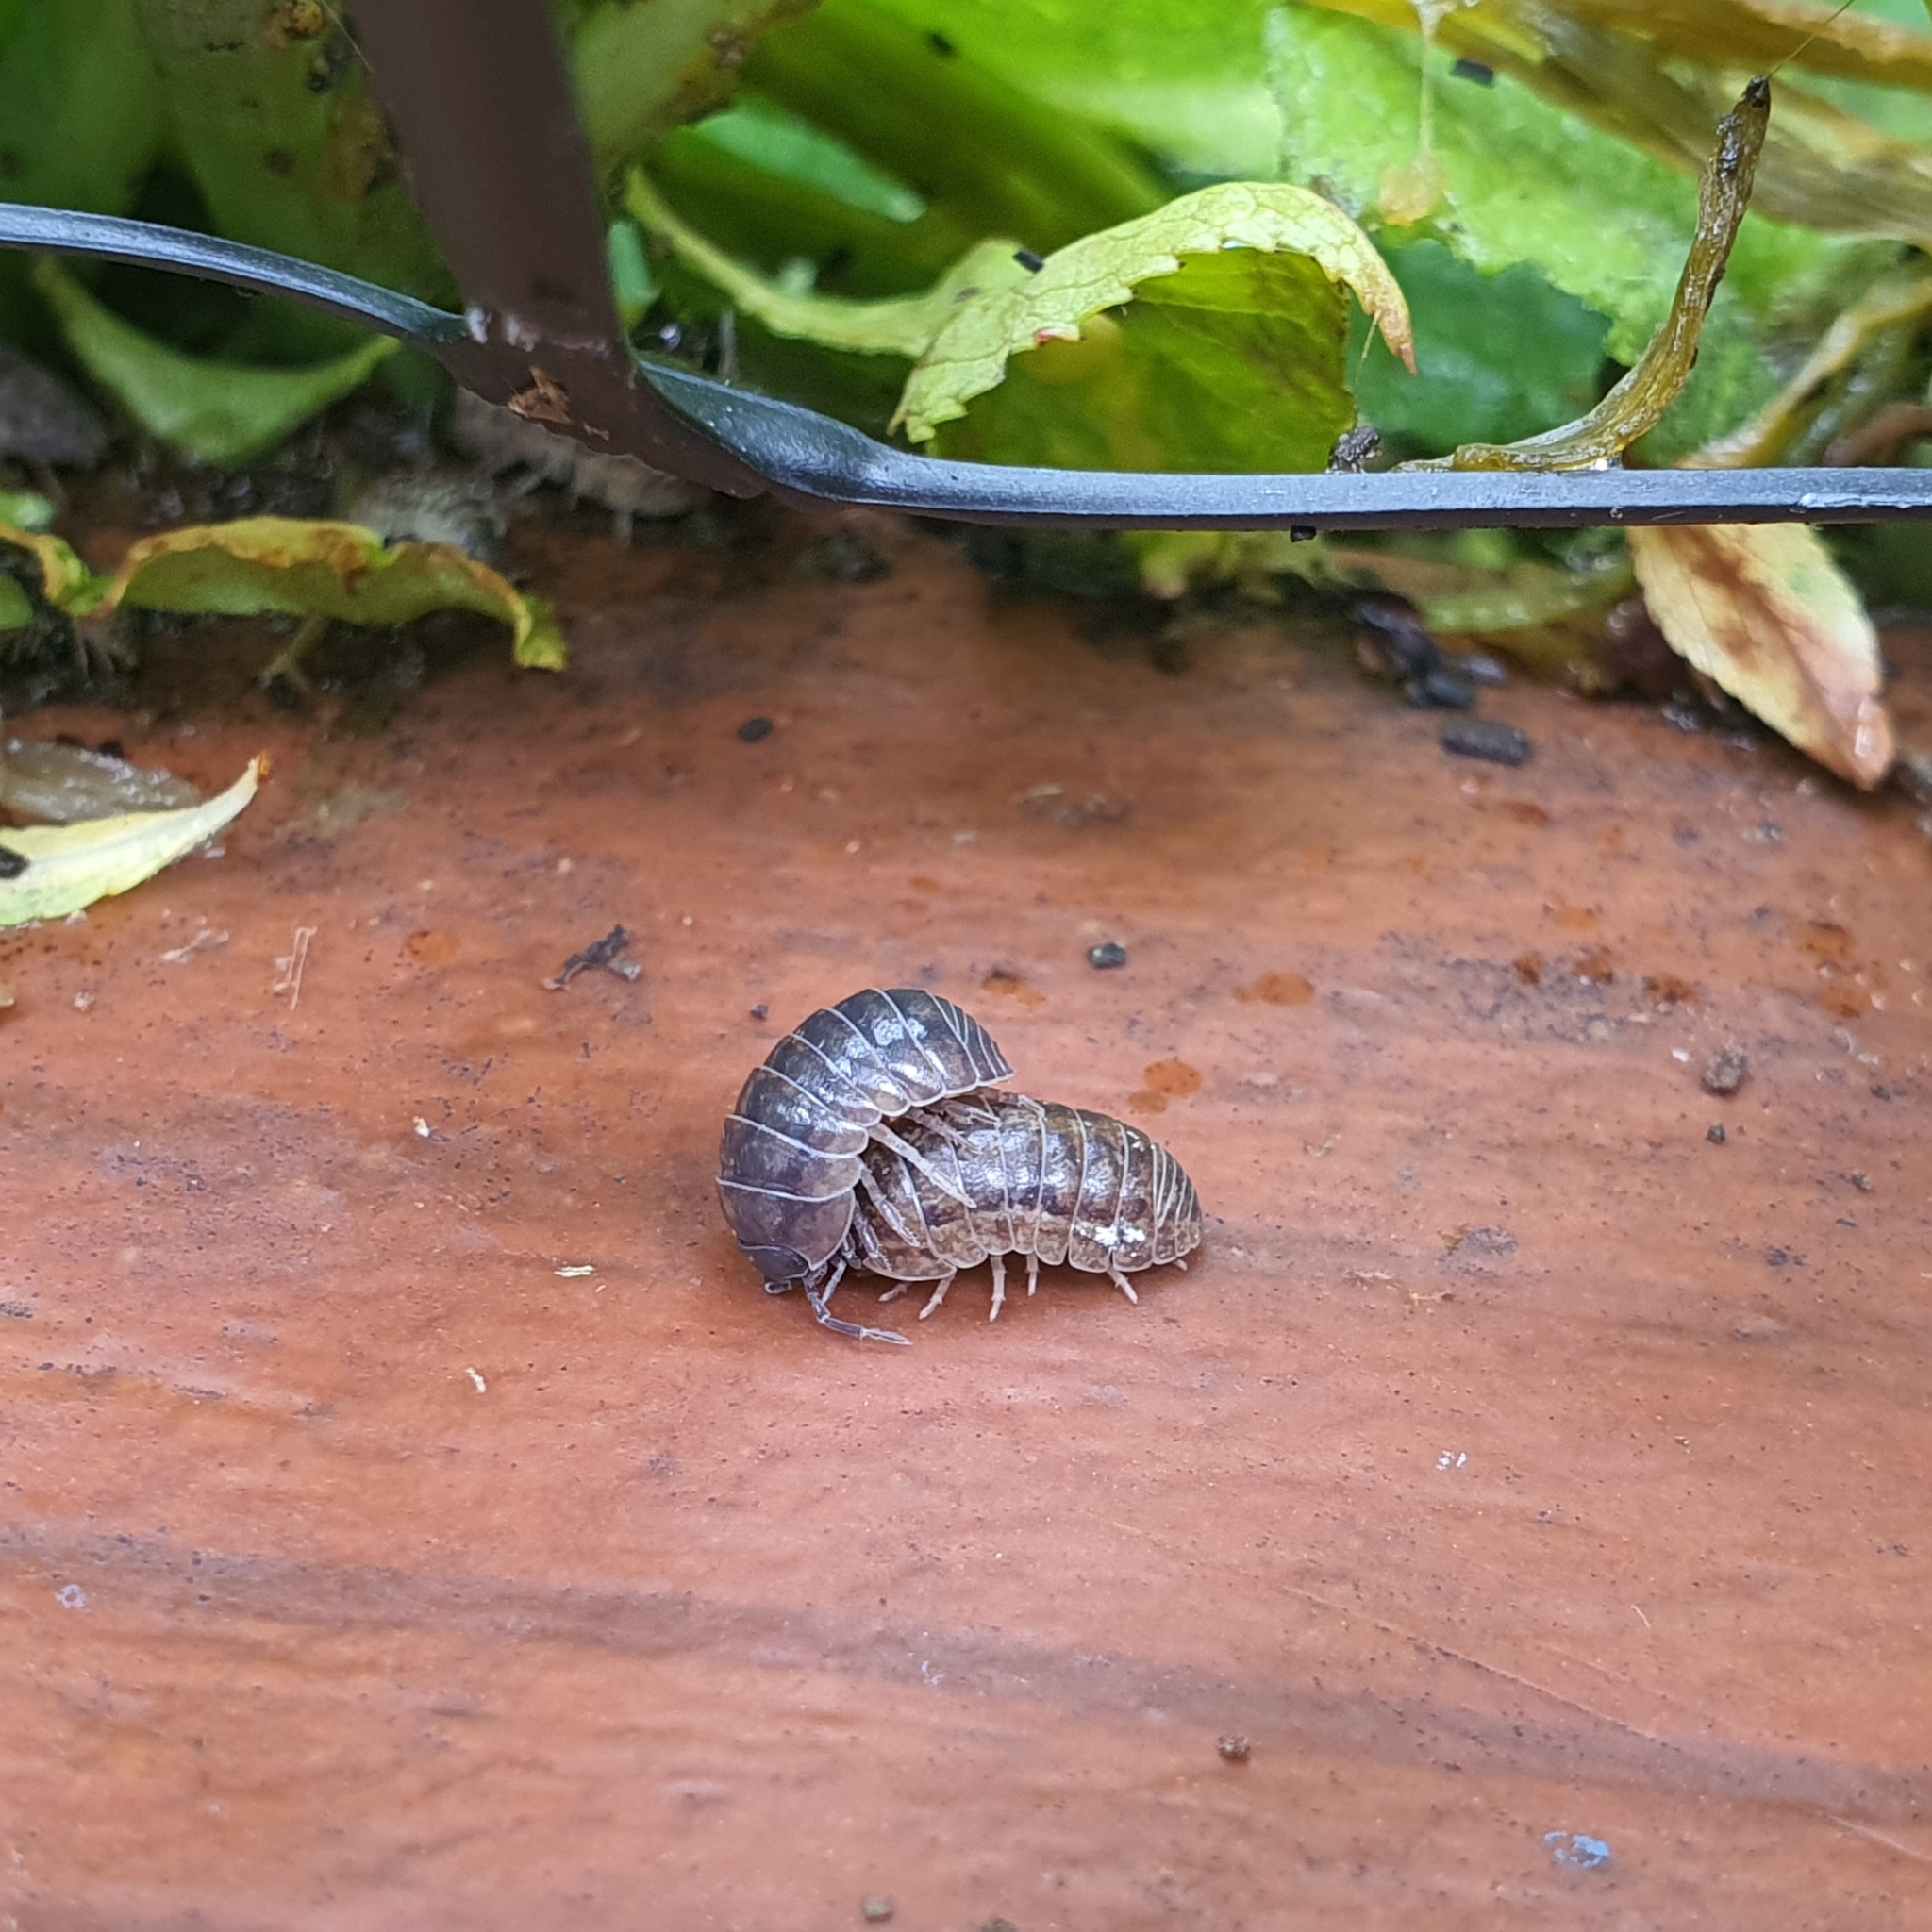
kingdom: Animalia
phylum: Arthropoda
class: Malacostraca
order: Isopoda
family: Armadillidiidae
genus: Armadillidium
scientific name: Armadillidium vulgare
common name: Common pill woodlouse
